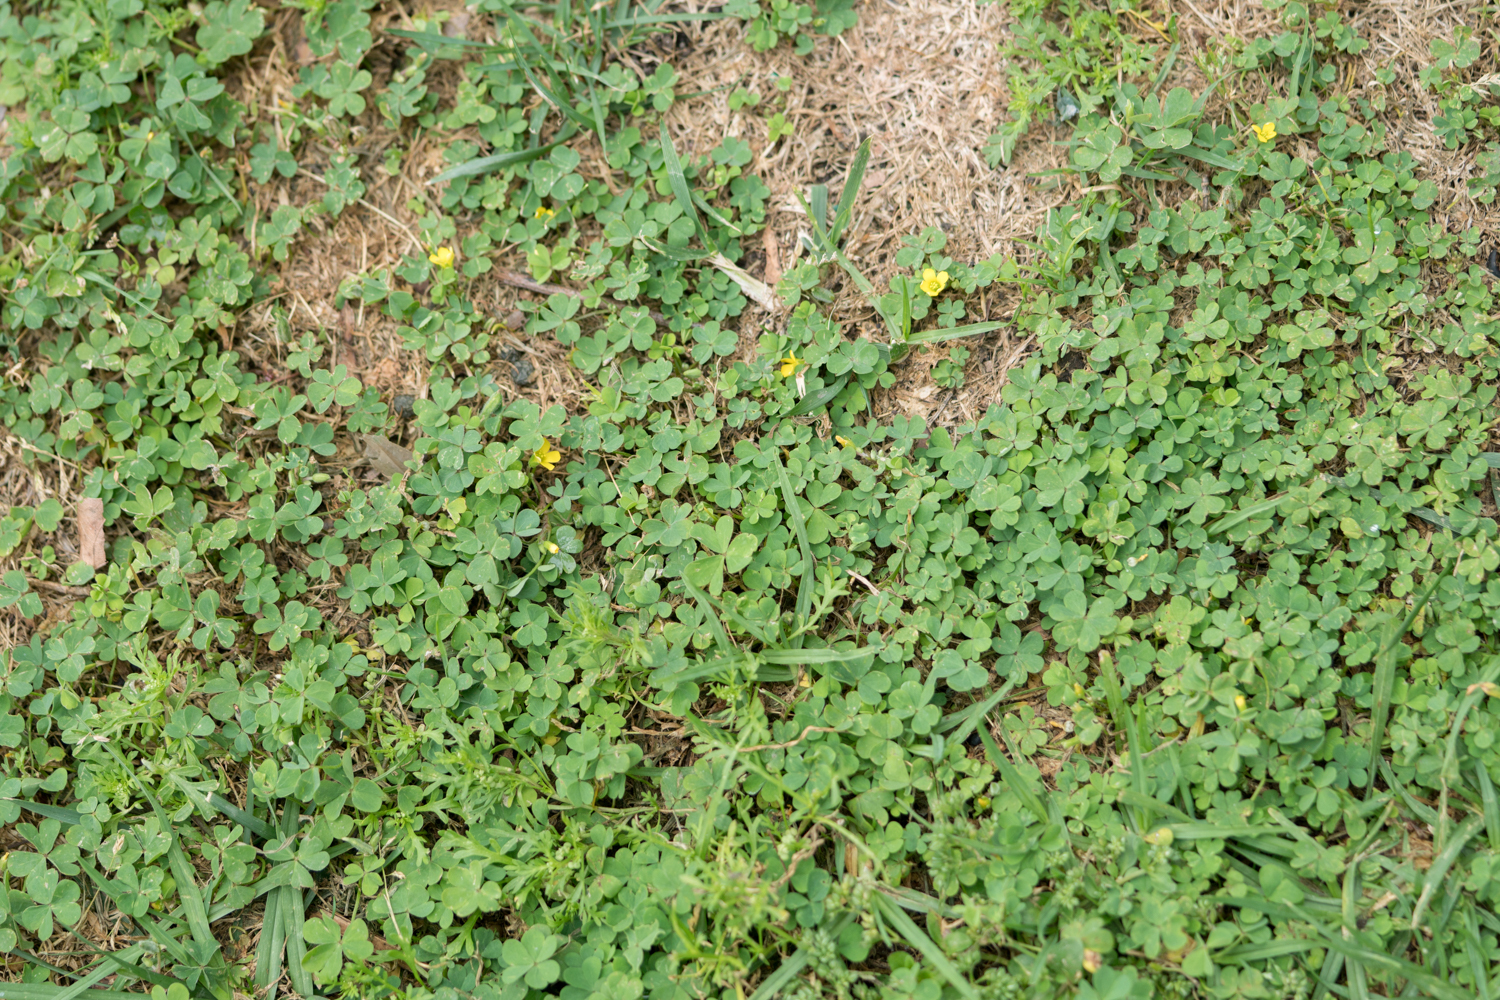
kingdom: Plantae
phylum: Tracheophyta
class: Magnoliopsida
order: Oxalidales
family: Oxalidaceae
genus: Oxalis
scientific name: Oxalis corniculata
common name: Procumbent yellow-sorrel
